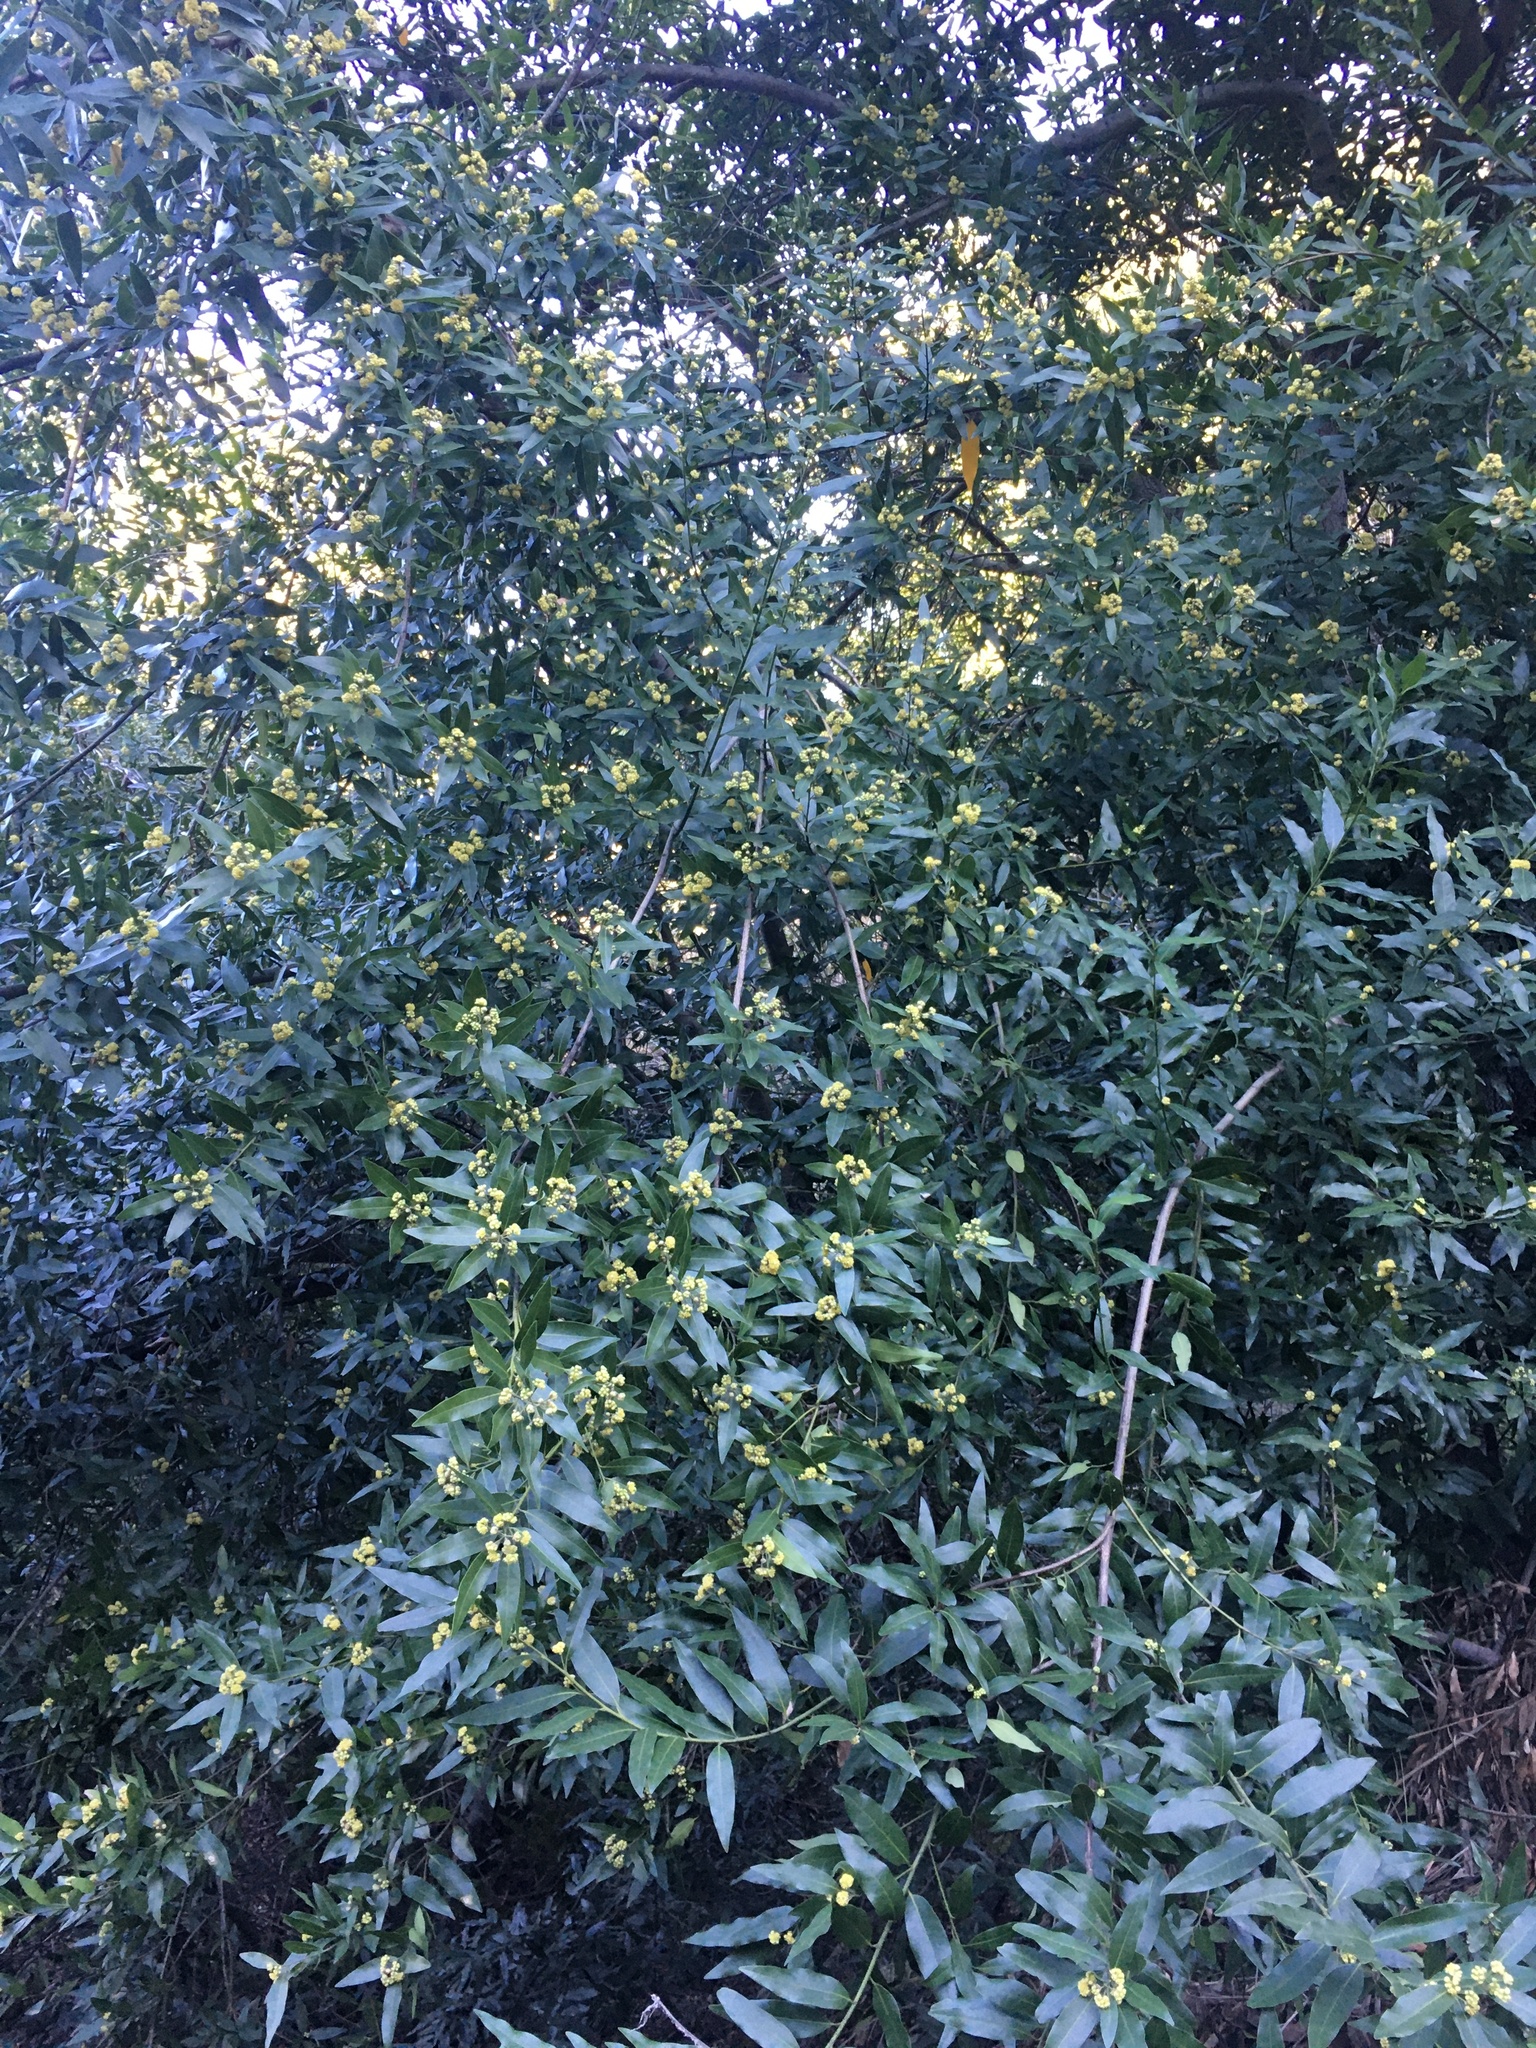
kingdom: Plantae
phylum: Tracheophyta
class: Magnoliopsida
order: Laurales
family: Lauraceae
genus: Umbellularia
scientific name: Umbellularia californica
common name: California bay
